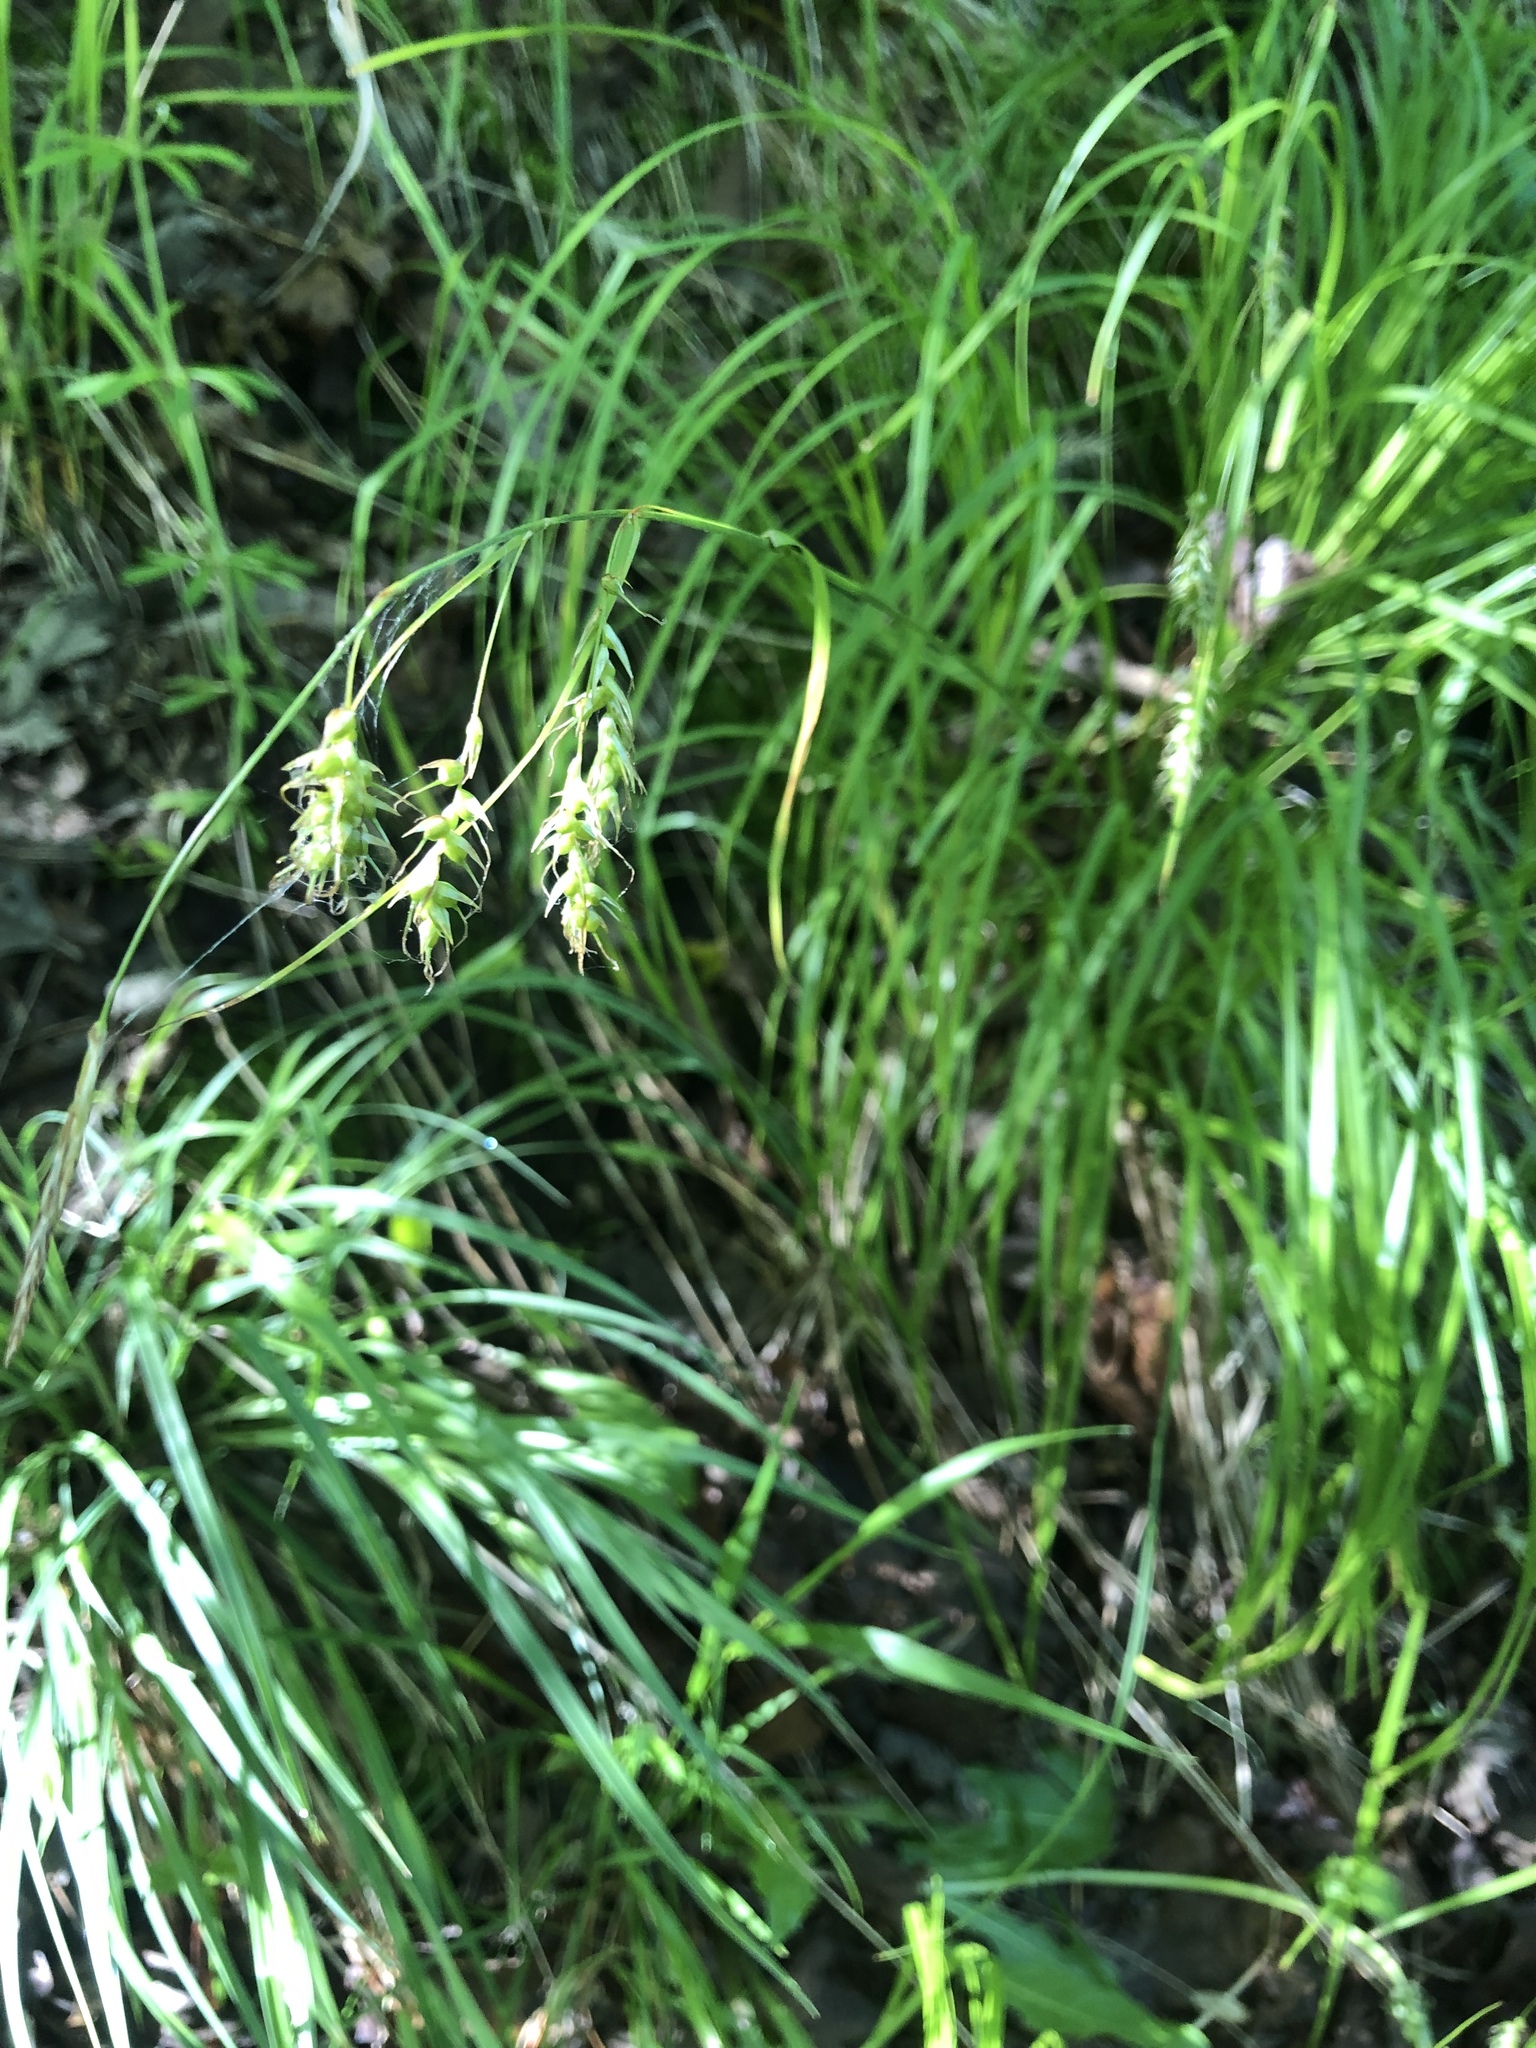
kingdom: Plantae
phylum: Tracheophyta
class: Liliopsida
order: Poales
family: Cyperaceae
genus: Carex
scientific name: Carex sprengelii
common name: Long-beaked sedge
